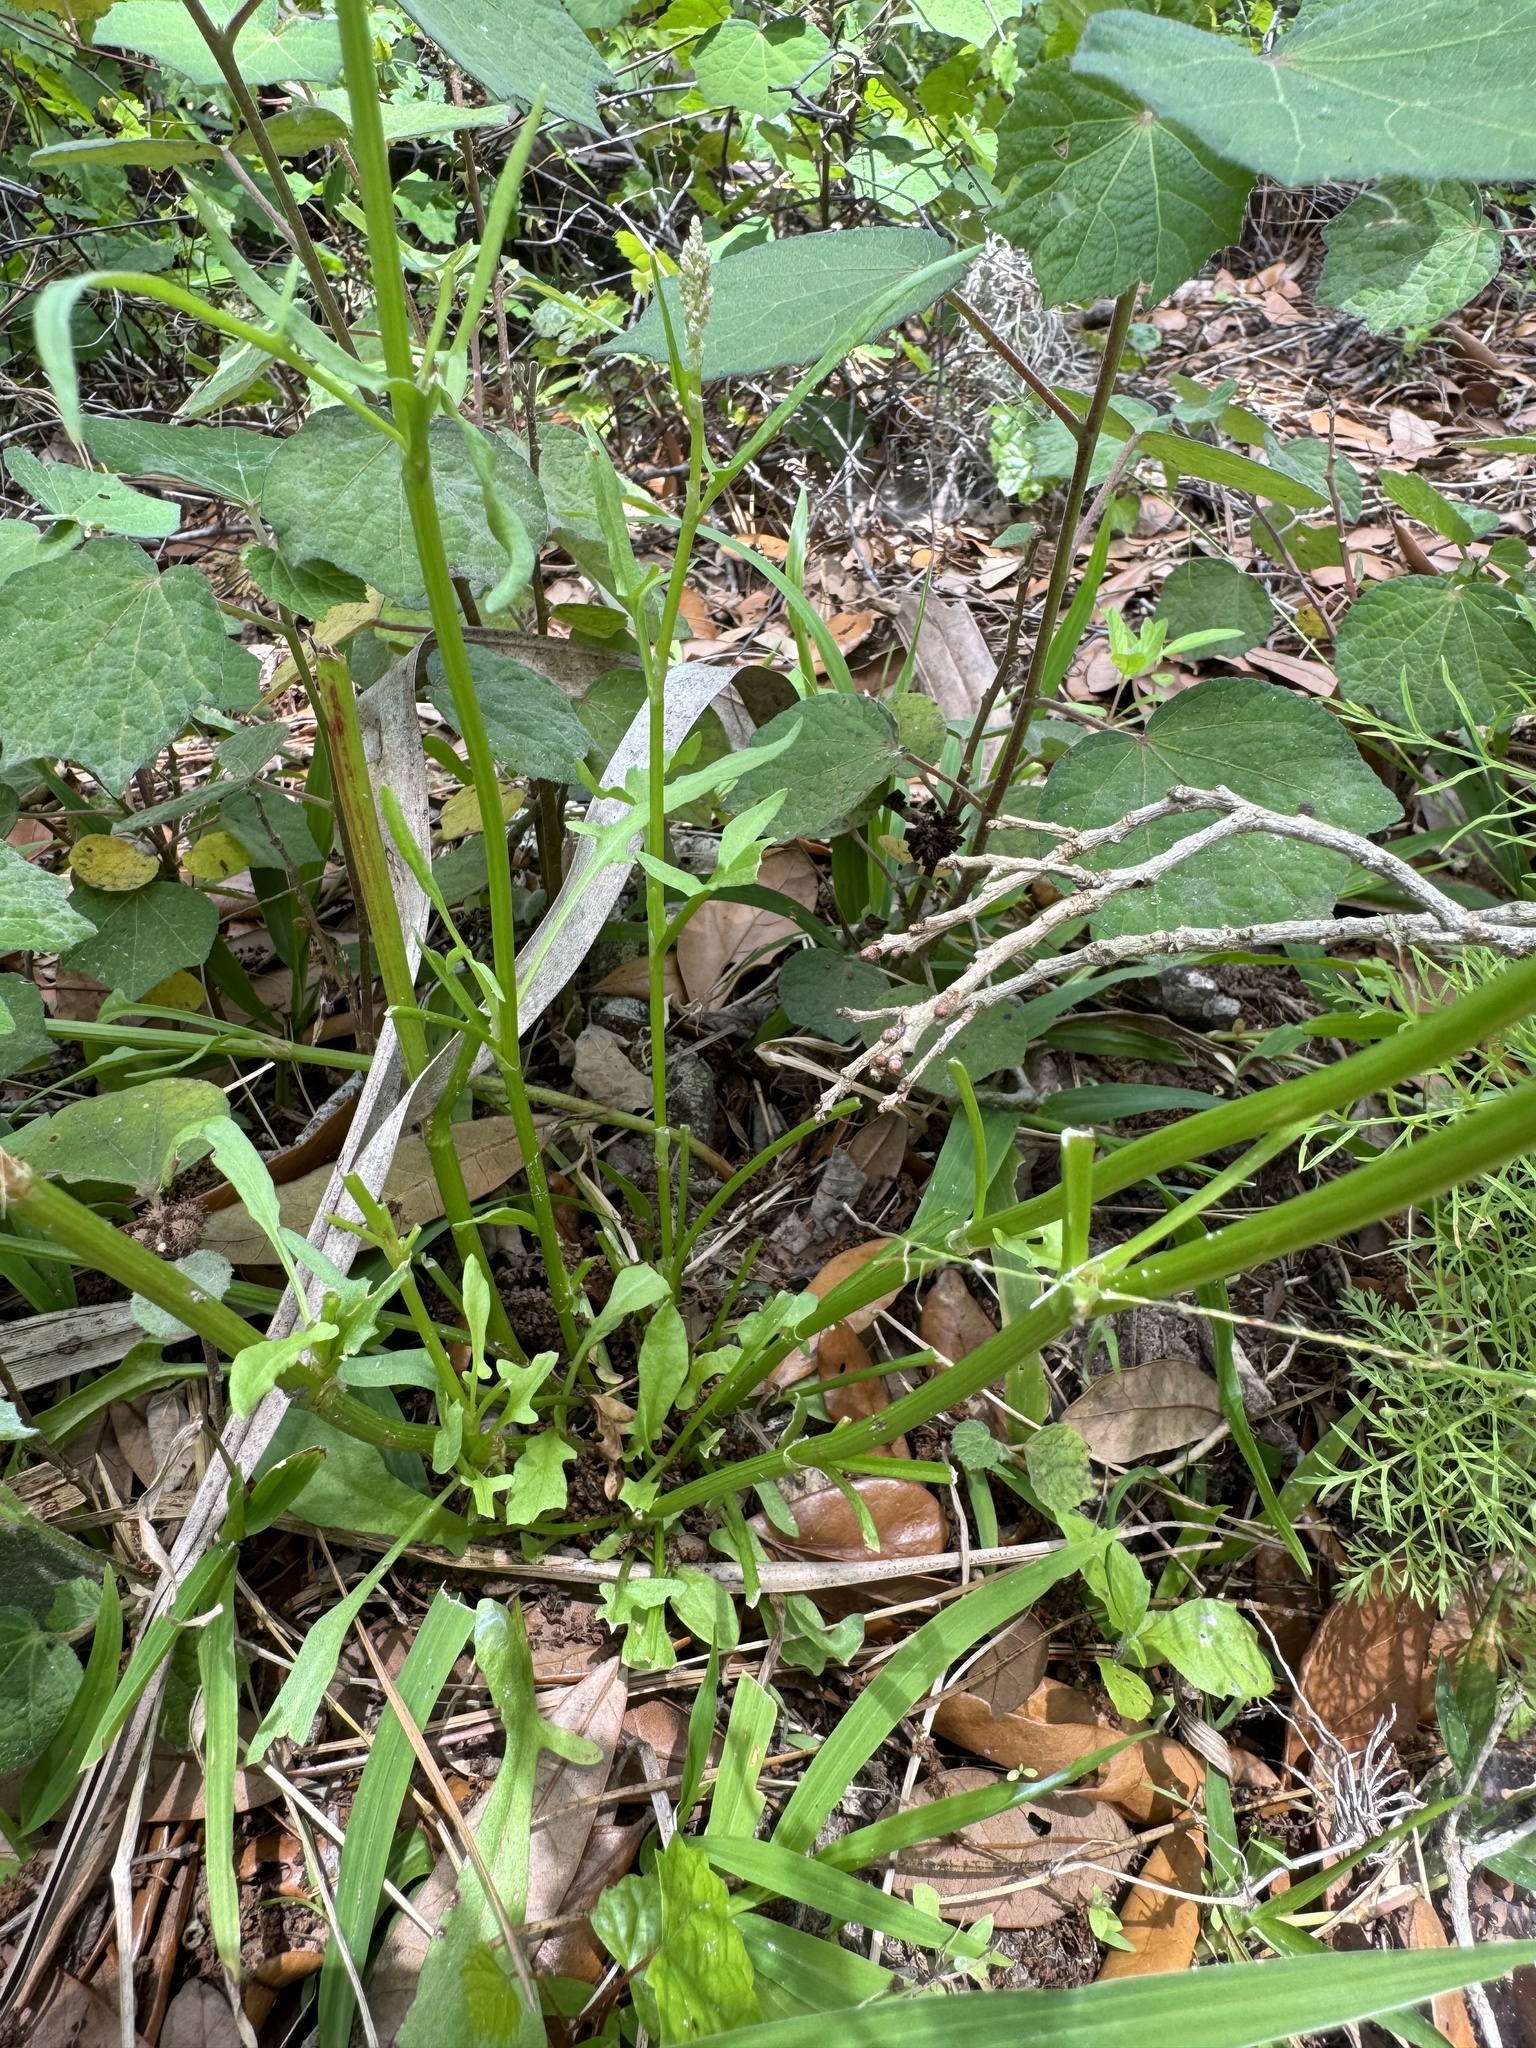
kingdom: Plantae
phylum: Tracheophyta
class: Magnoliopsida
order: Caryophyllales
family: Polygonaceae
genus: Rumex
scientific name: Rumex hastatulus
